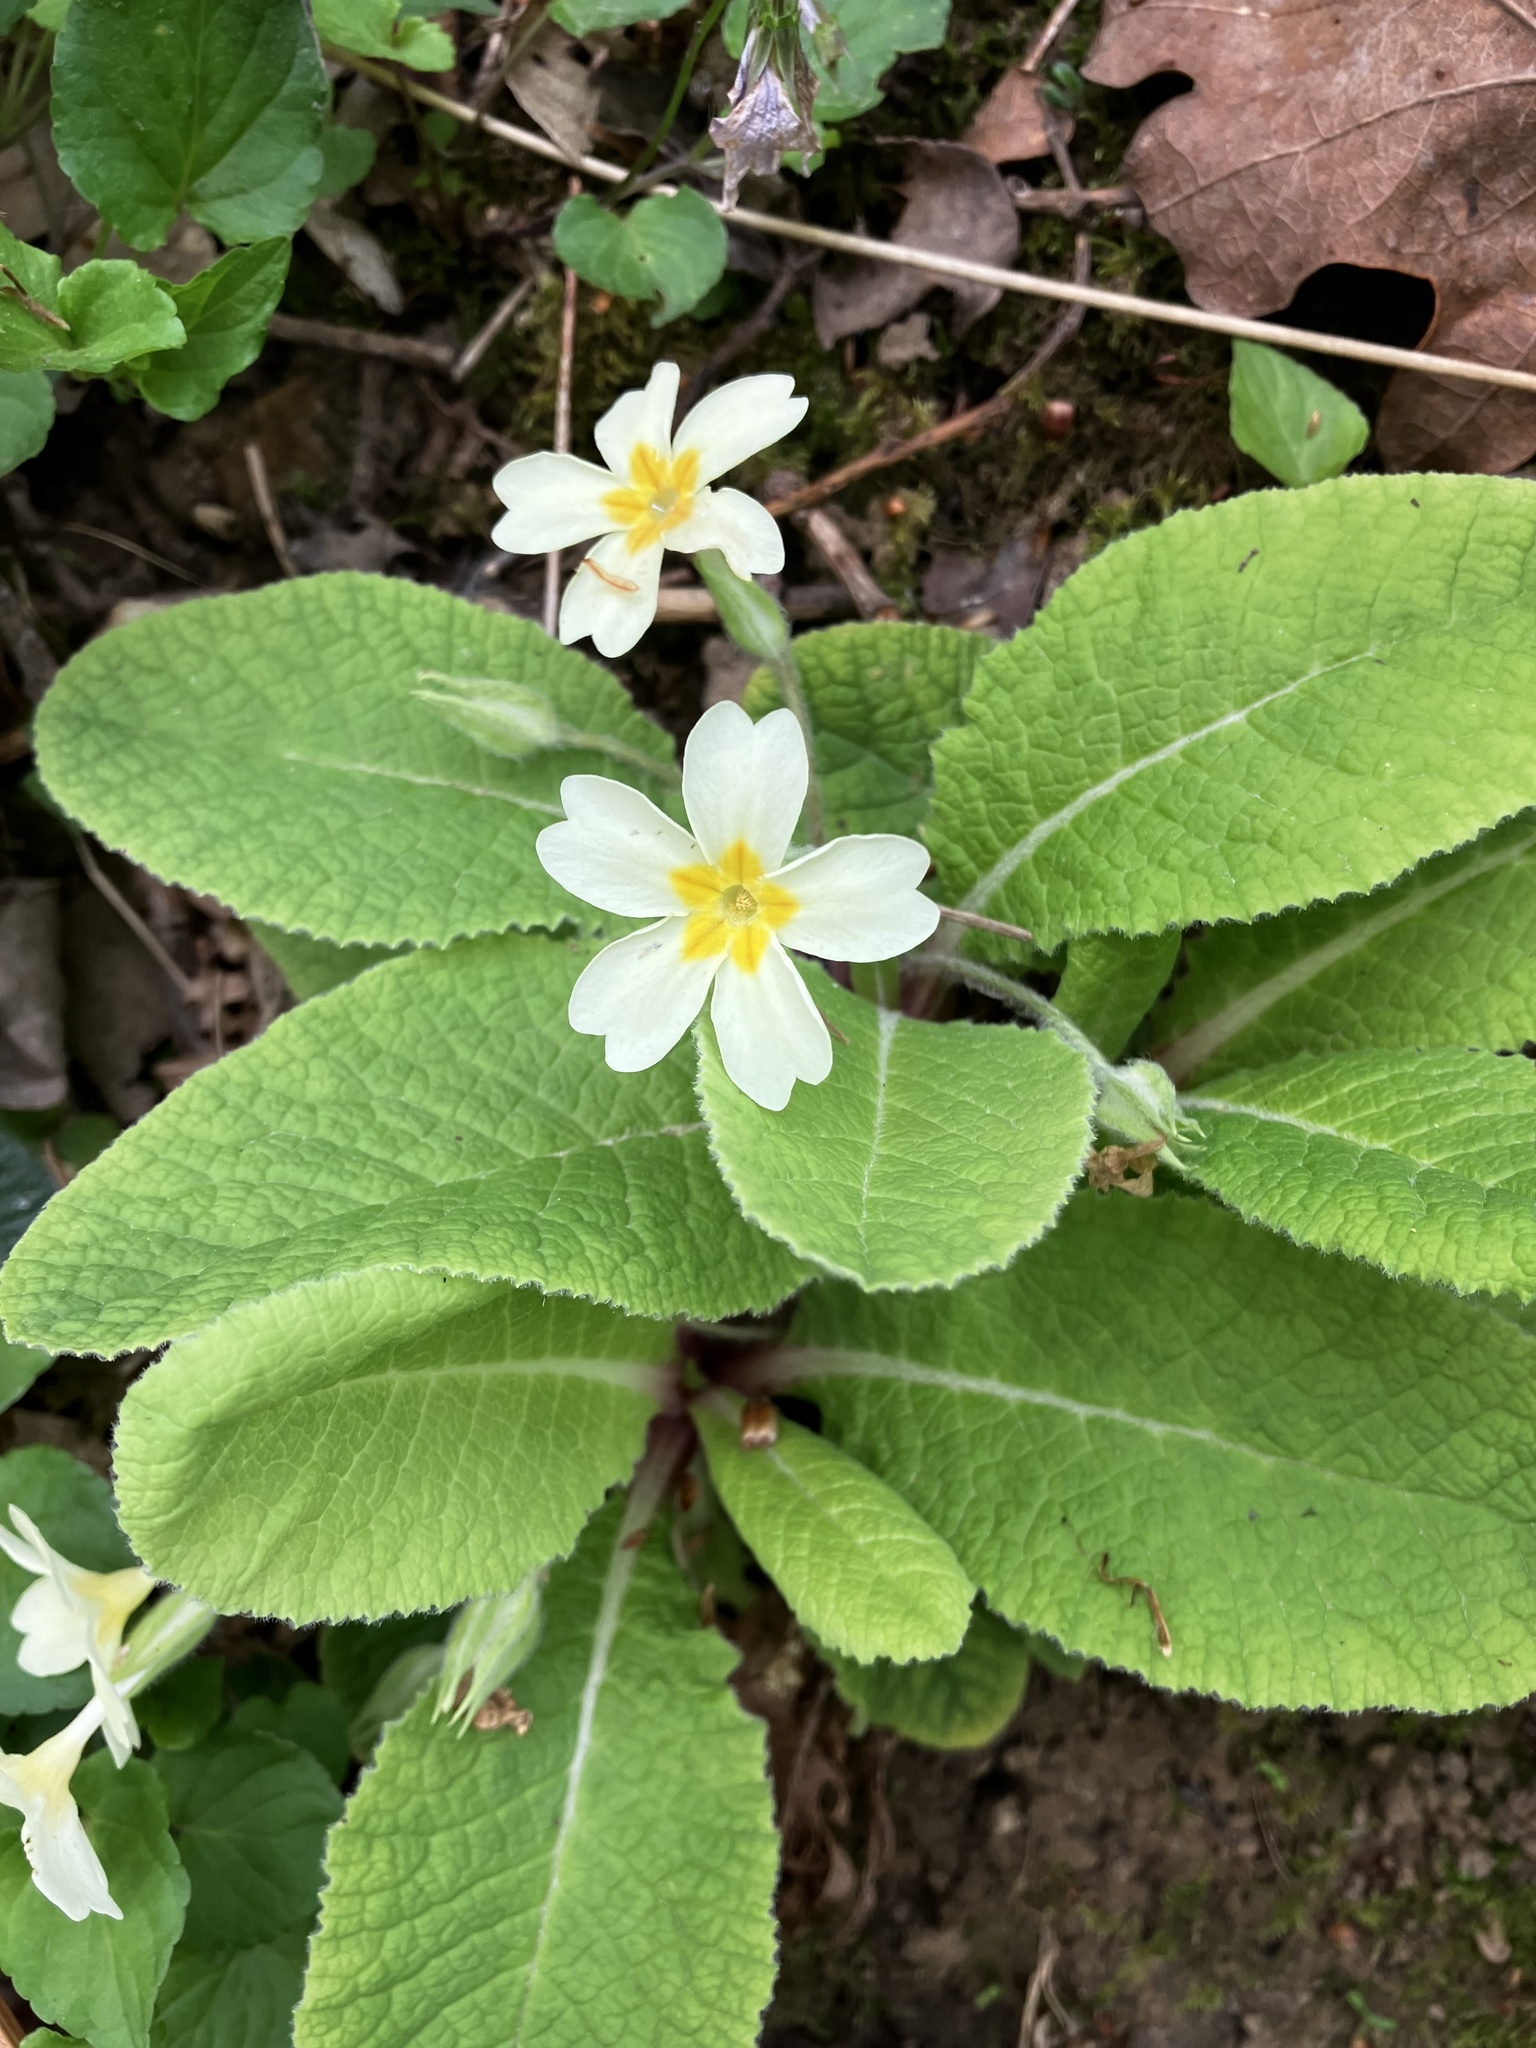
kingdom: Plantae
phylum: Tracheophyta
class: Magnoliopsida
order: Ericales
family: Primulaceae
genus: Primula
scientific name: Primula vulgaris
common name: Primrose
